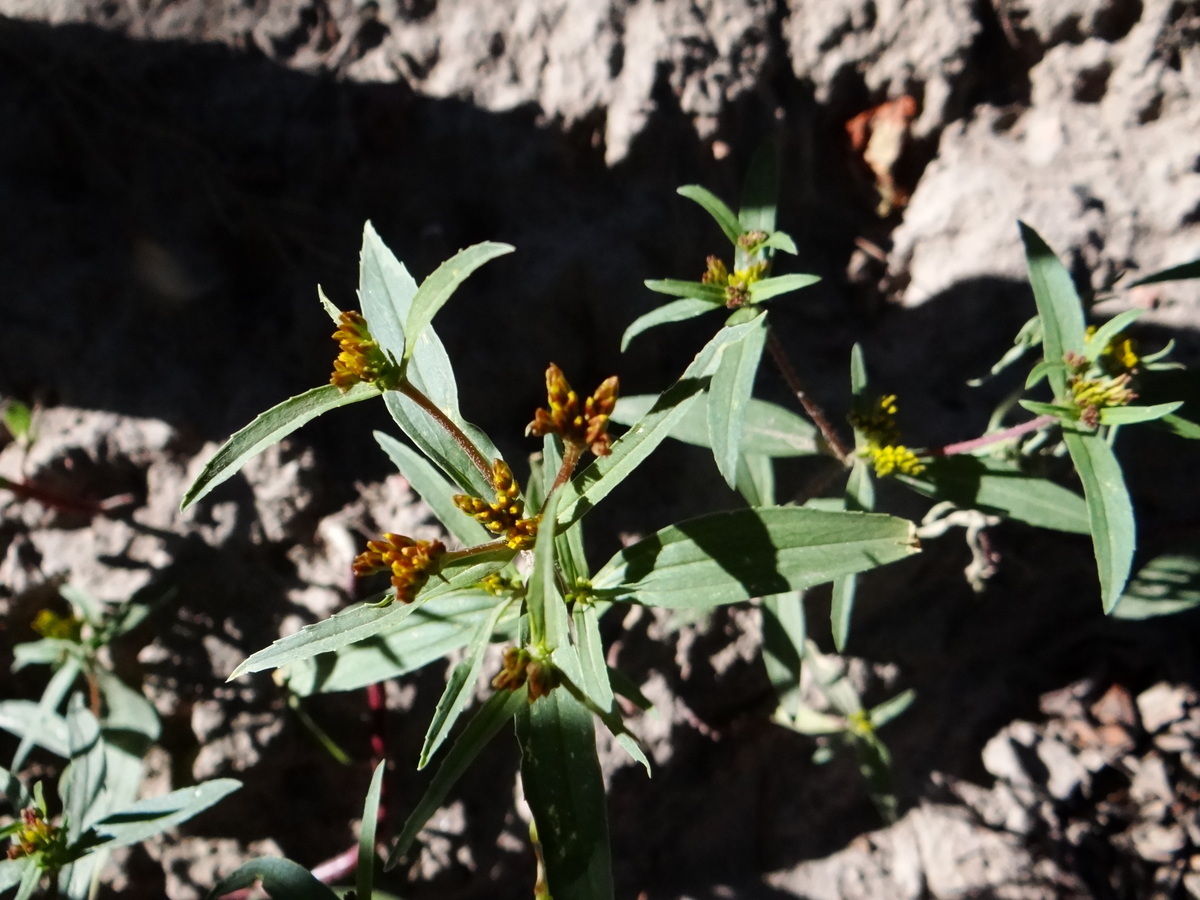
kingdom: Plantae
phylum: Tracheophyta
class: Magnoliopsida
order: Asterales
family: Asteraceae
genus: Flaveria
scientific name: Flaveria bidentis
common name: Coastal plain yellowtops
